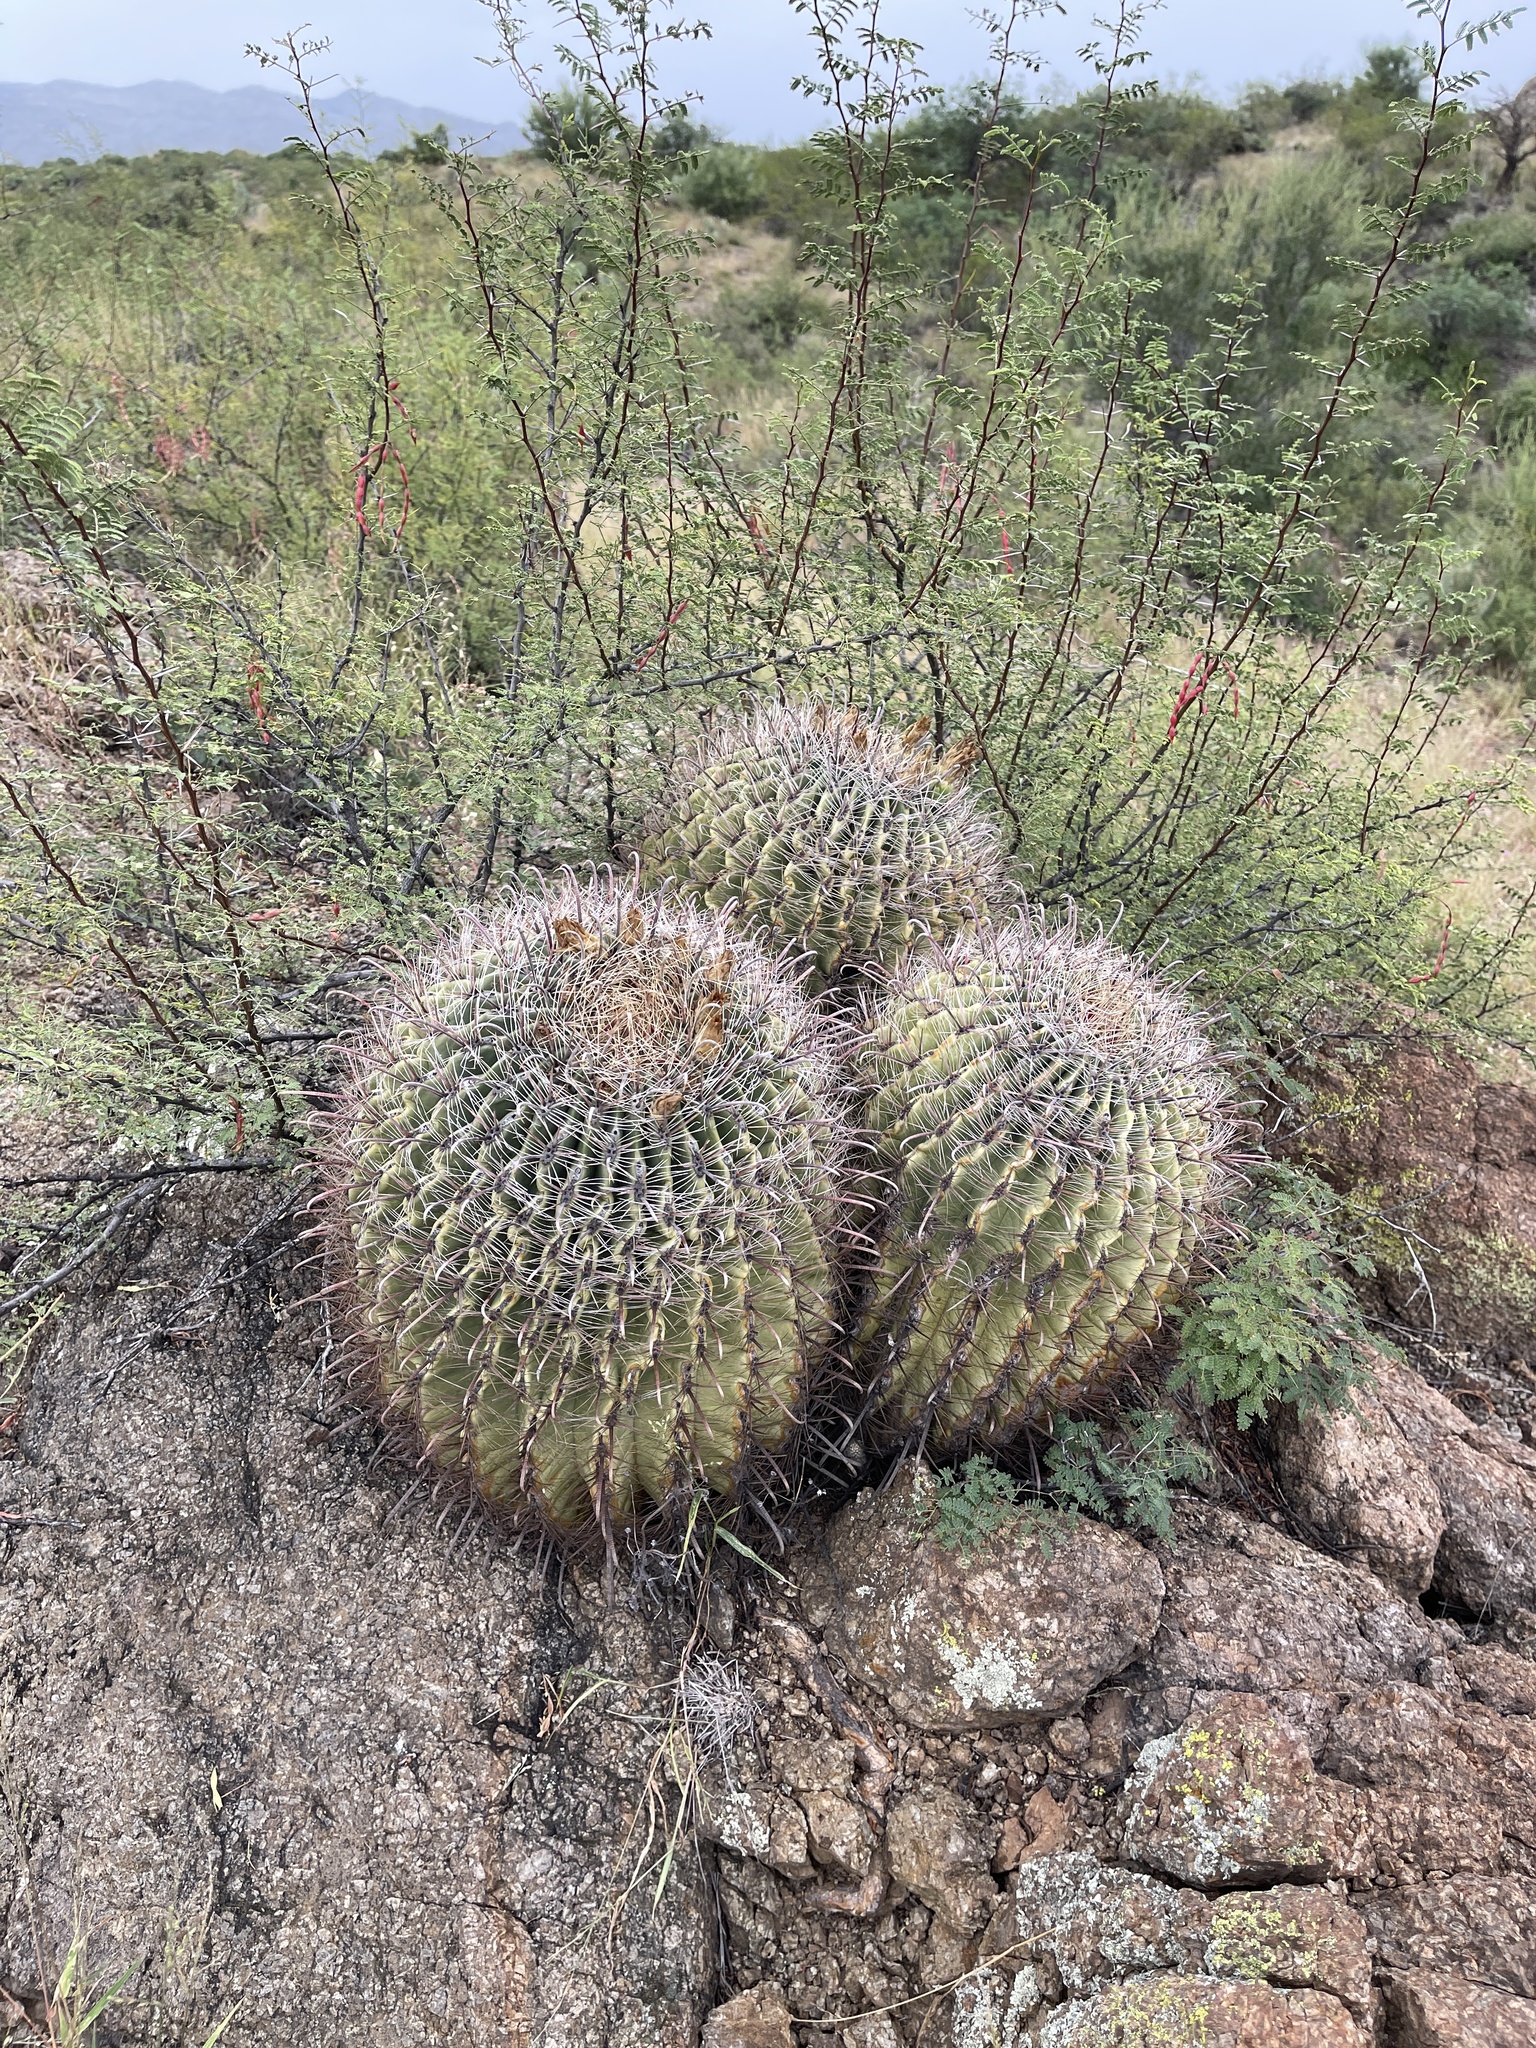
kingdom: Plantae
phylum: Tracheophyta
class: Magnoliopsida
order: Caryophyllales
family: Cactaceae
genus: Ferocactus
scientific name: Ferocactus wislizeni
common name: Candy barrel cactus
